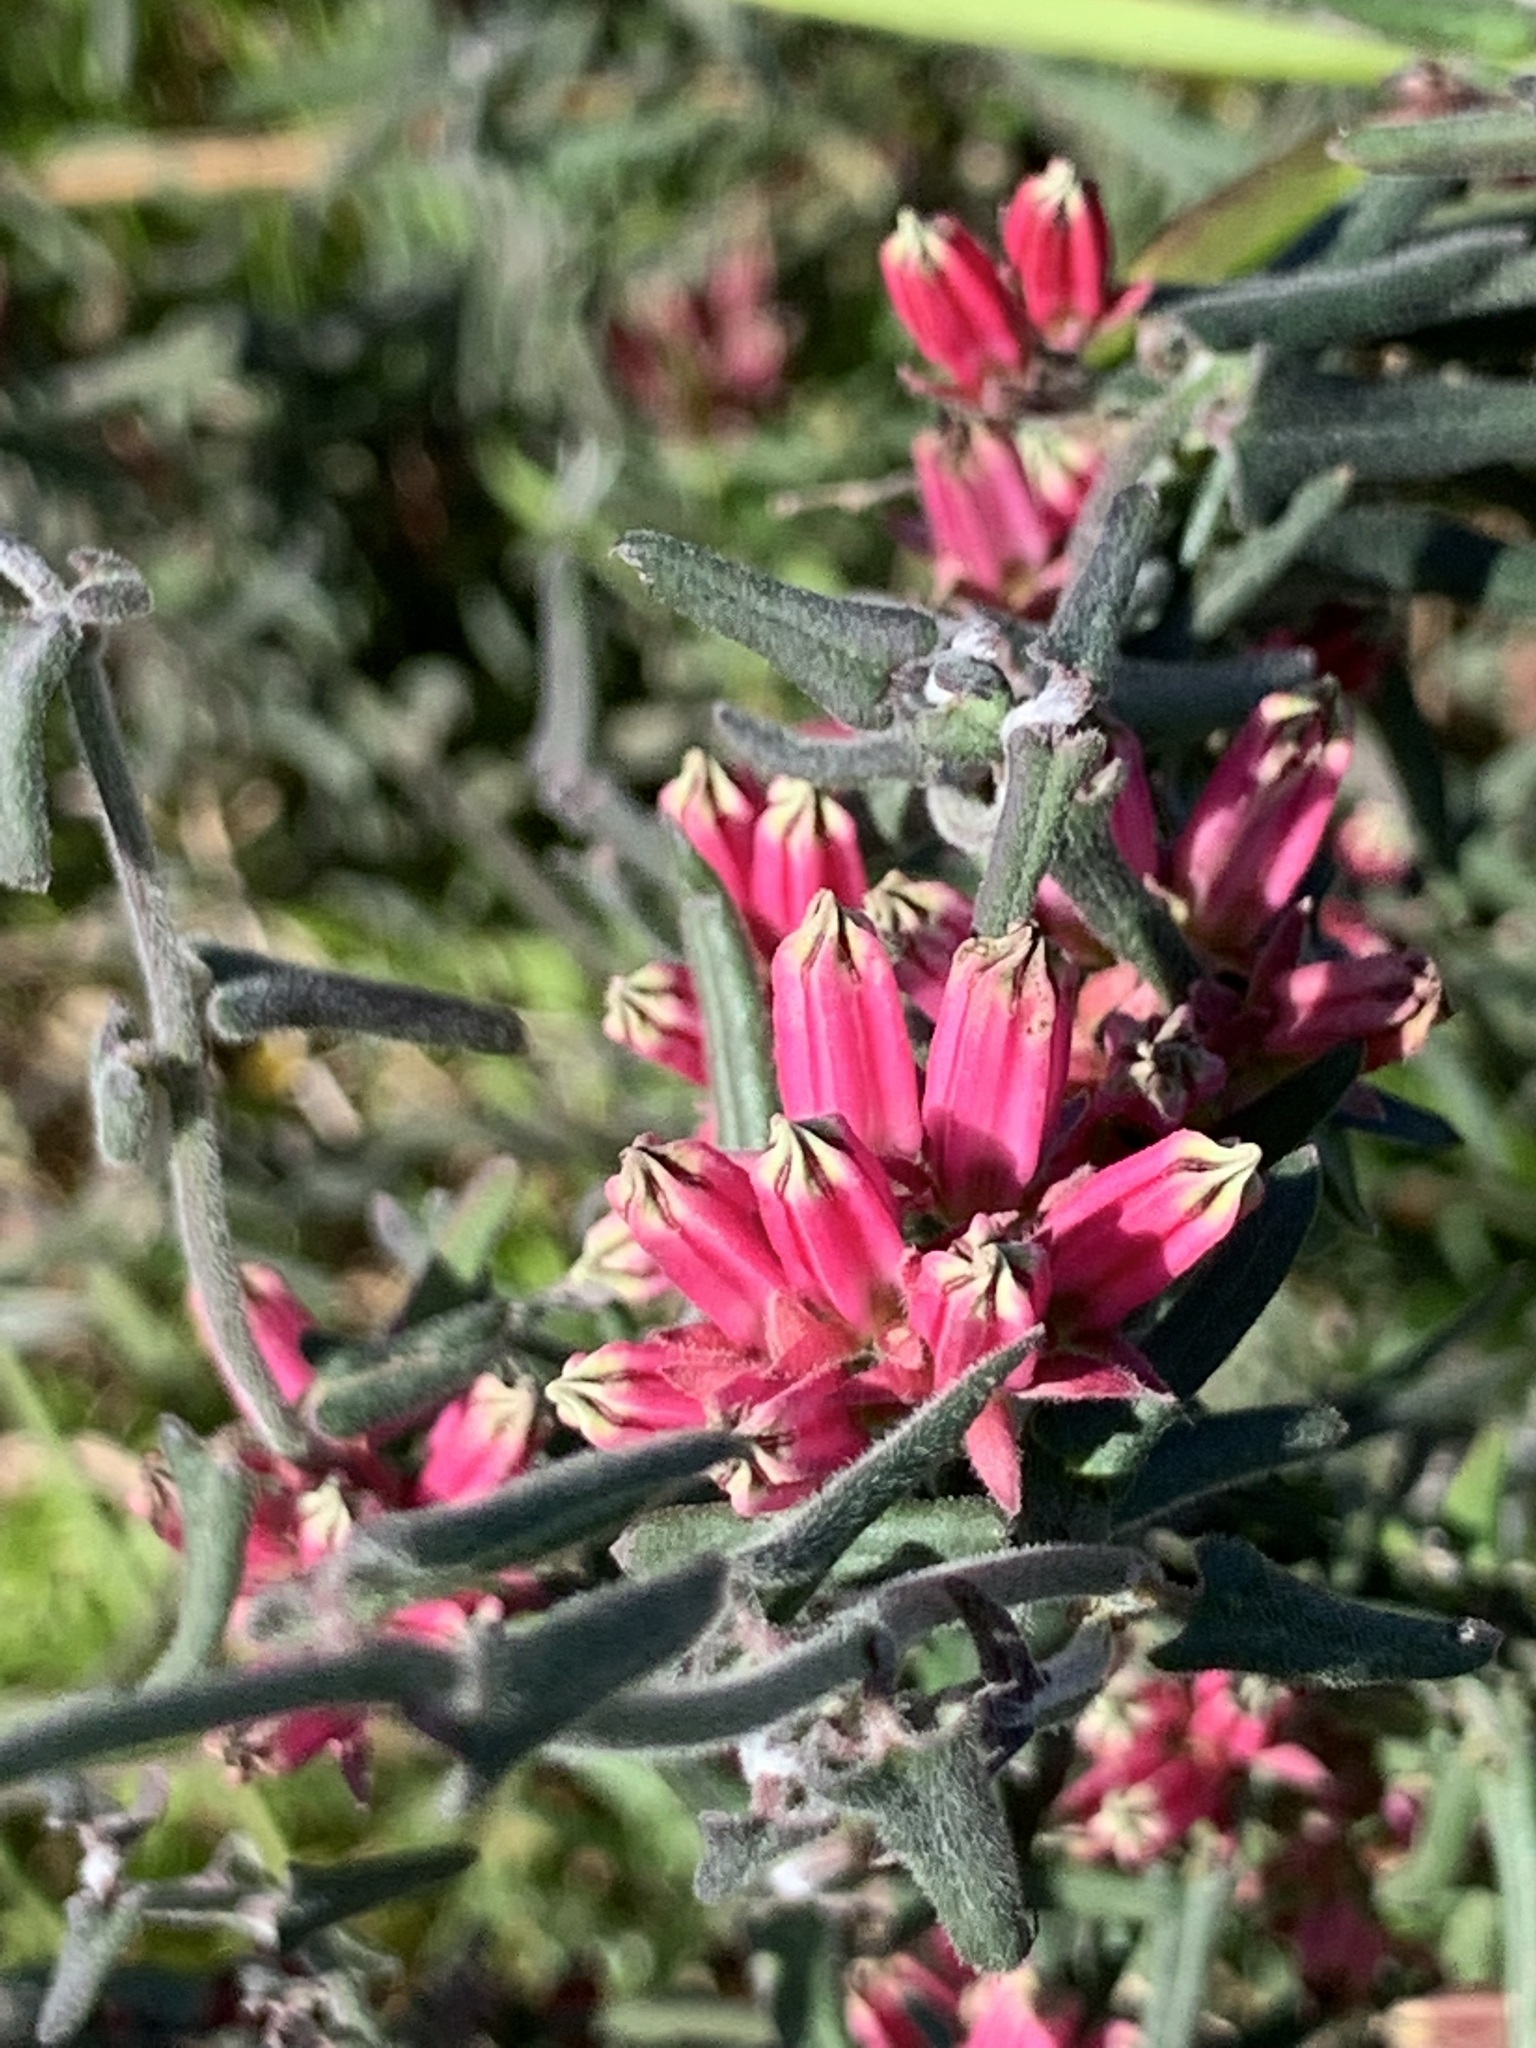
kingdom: Plantae
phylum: Tracheophyta
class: Magnoliopsida
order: Gentianales
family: Apocynaceae
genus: Microloma
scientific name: Microloma sagittatum
